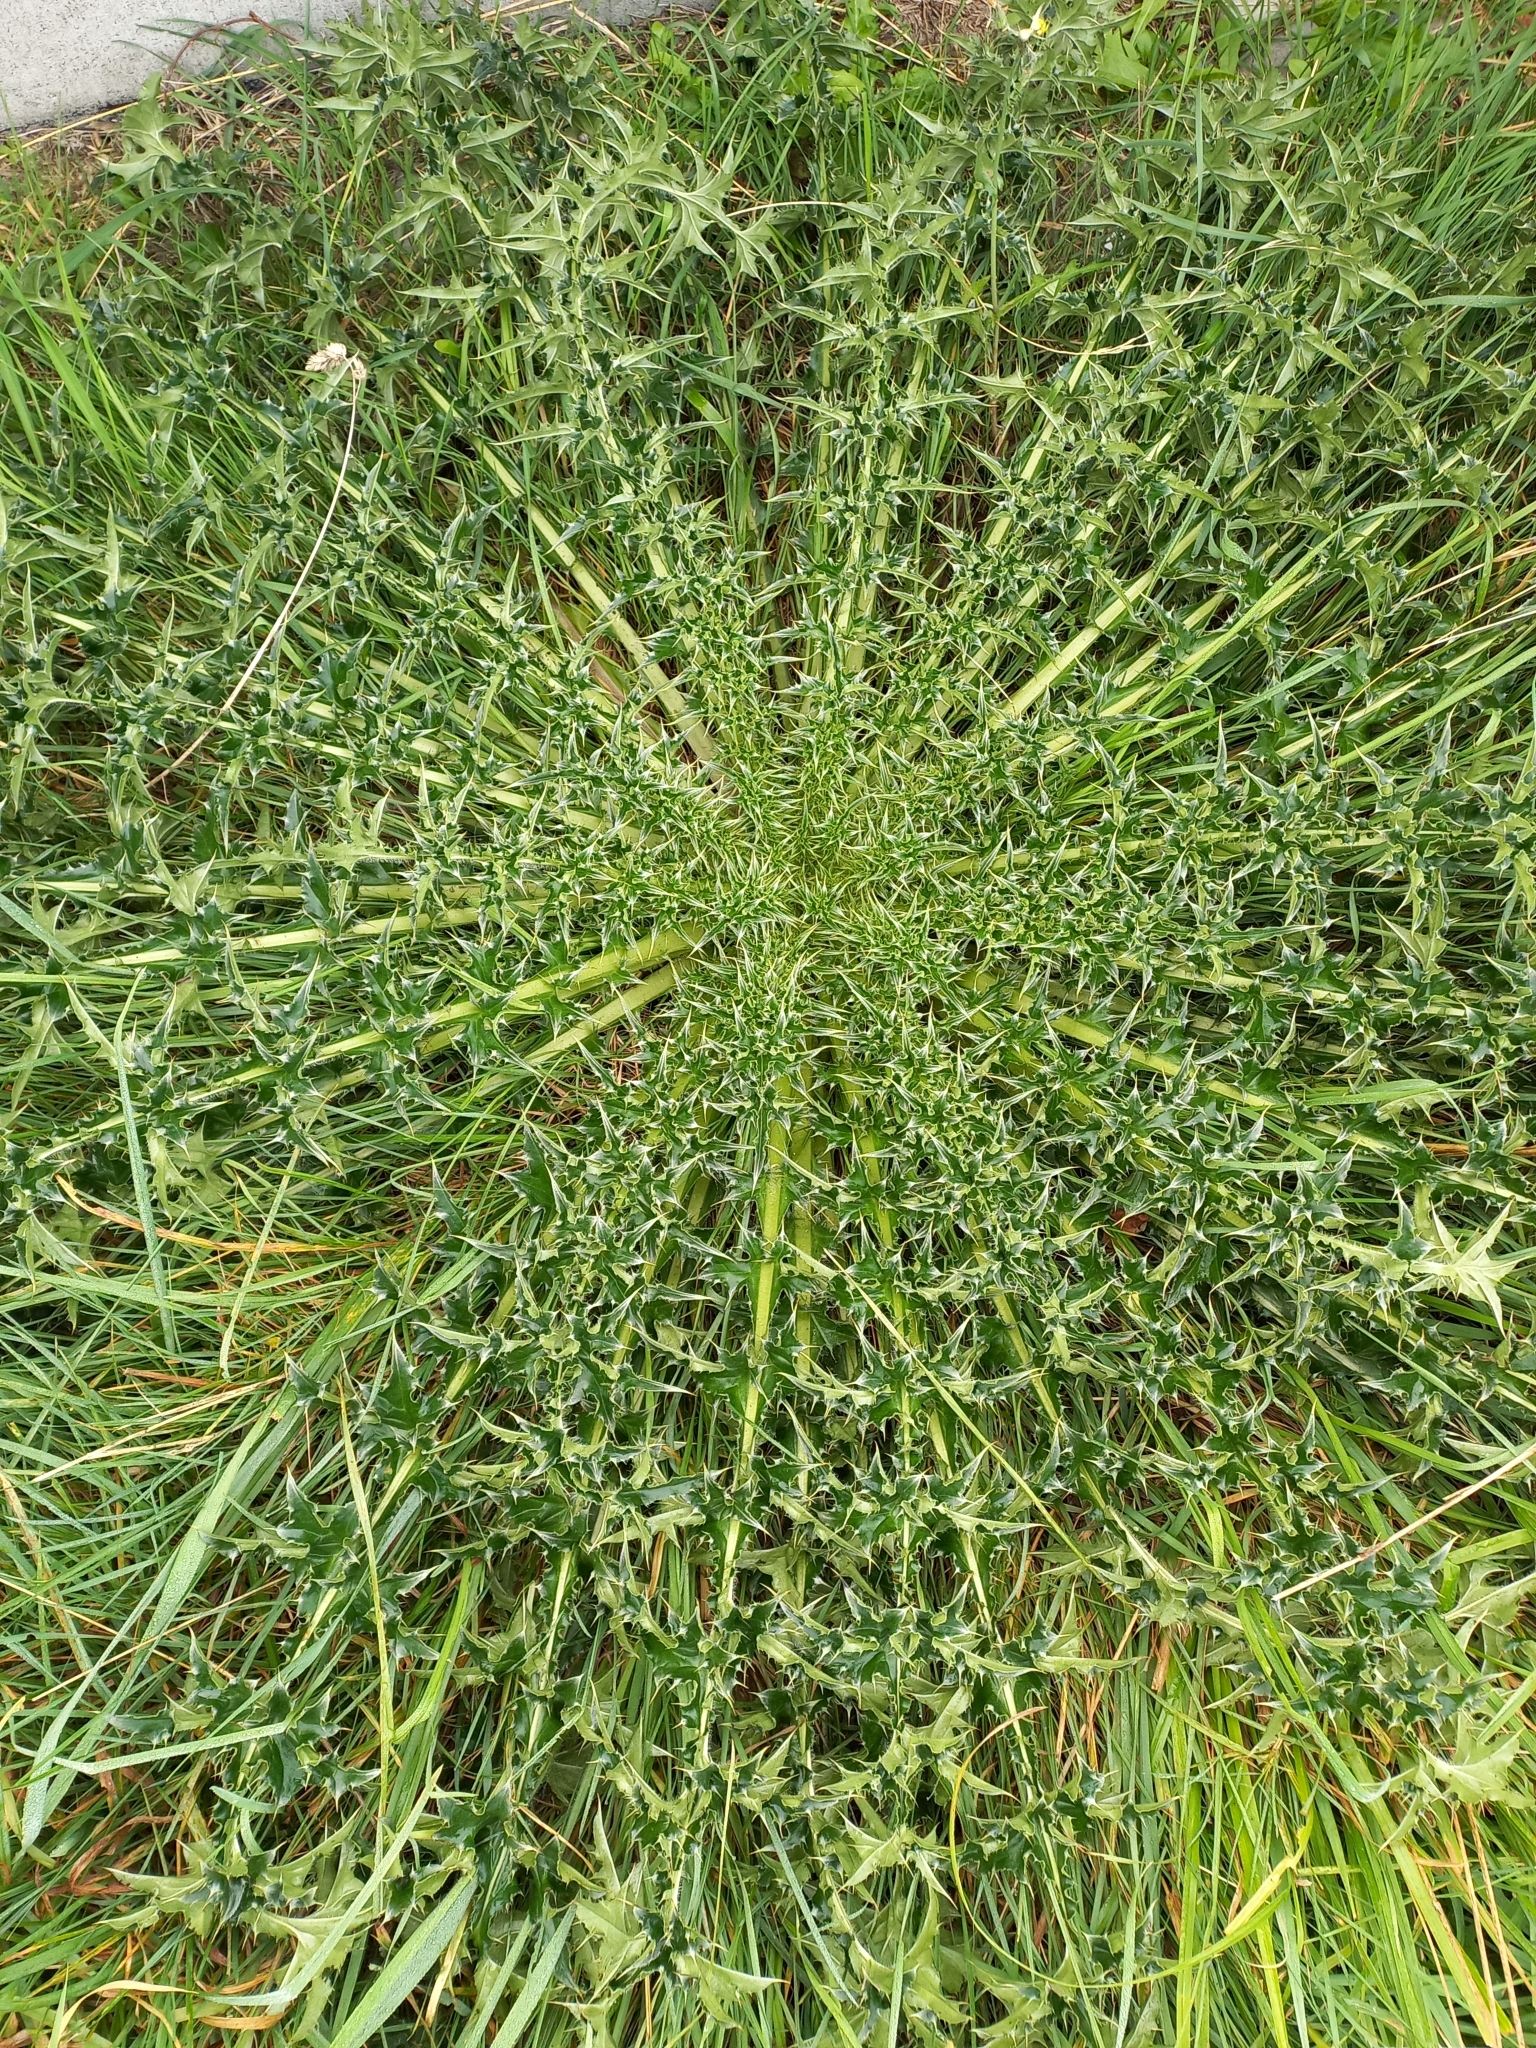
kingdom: Plantae
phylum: Tracheophyta
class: Magnoliopsida
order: Asterales
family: Asteraceae
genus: Carduus
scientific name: Carduus nutans
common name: Musk thistle
